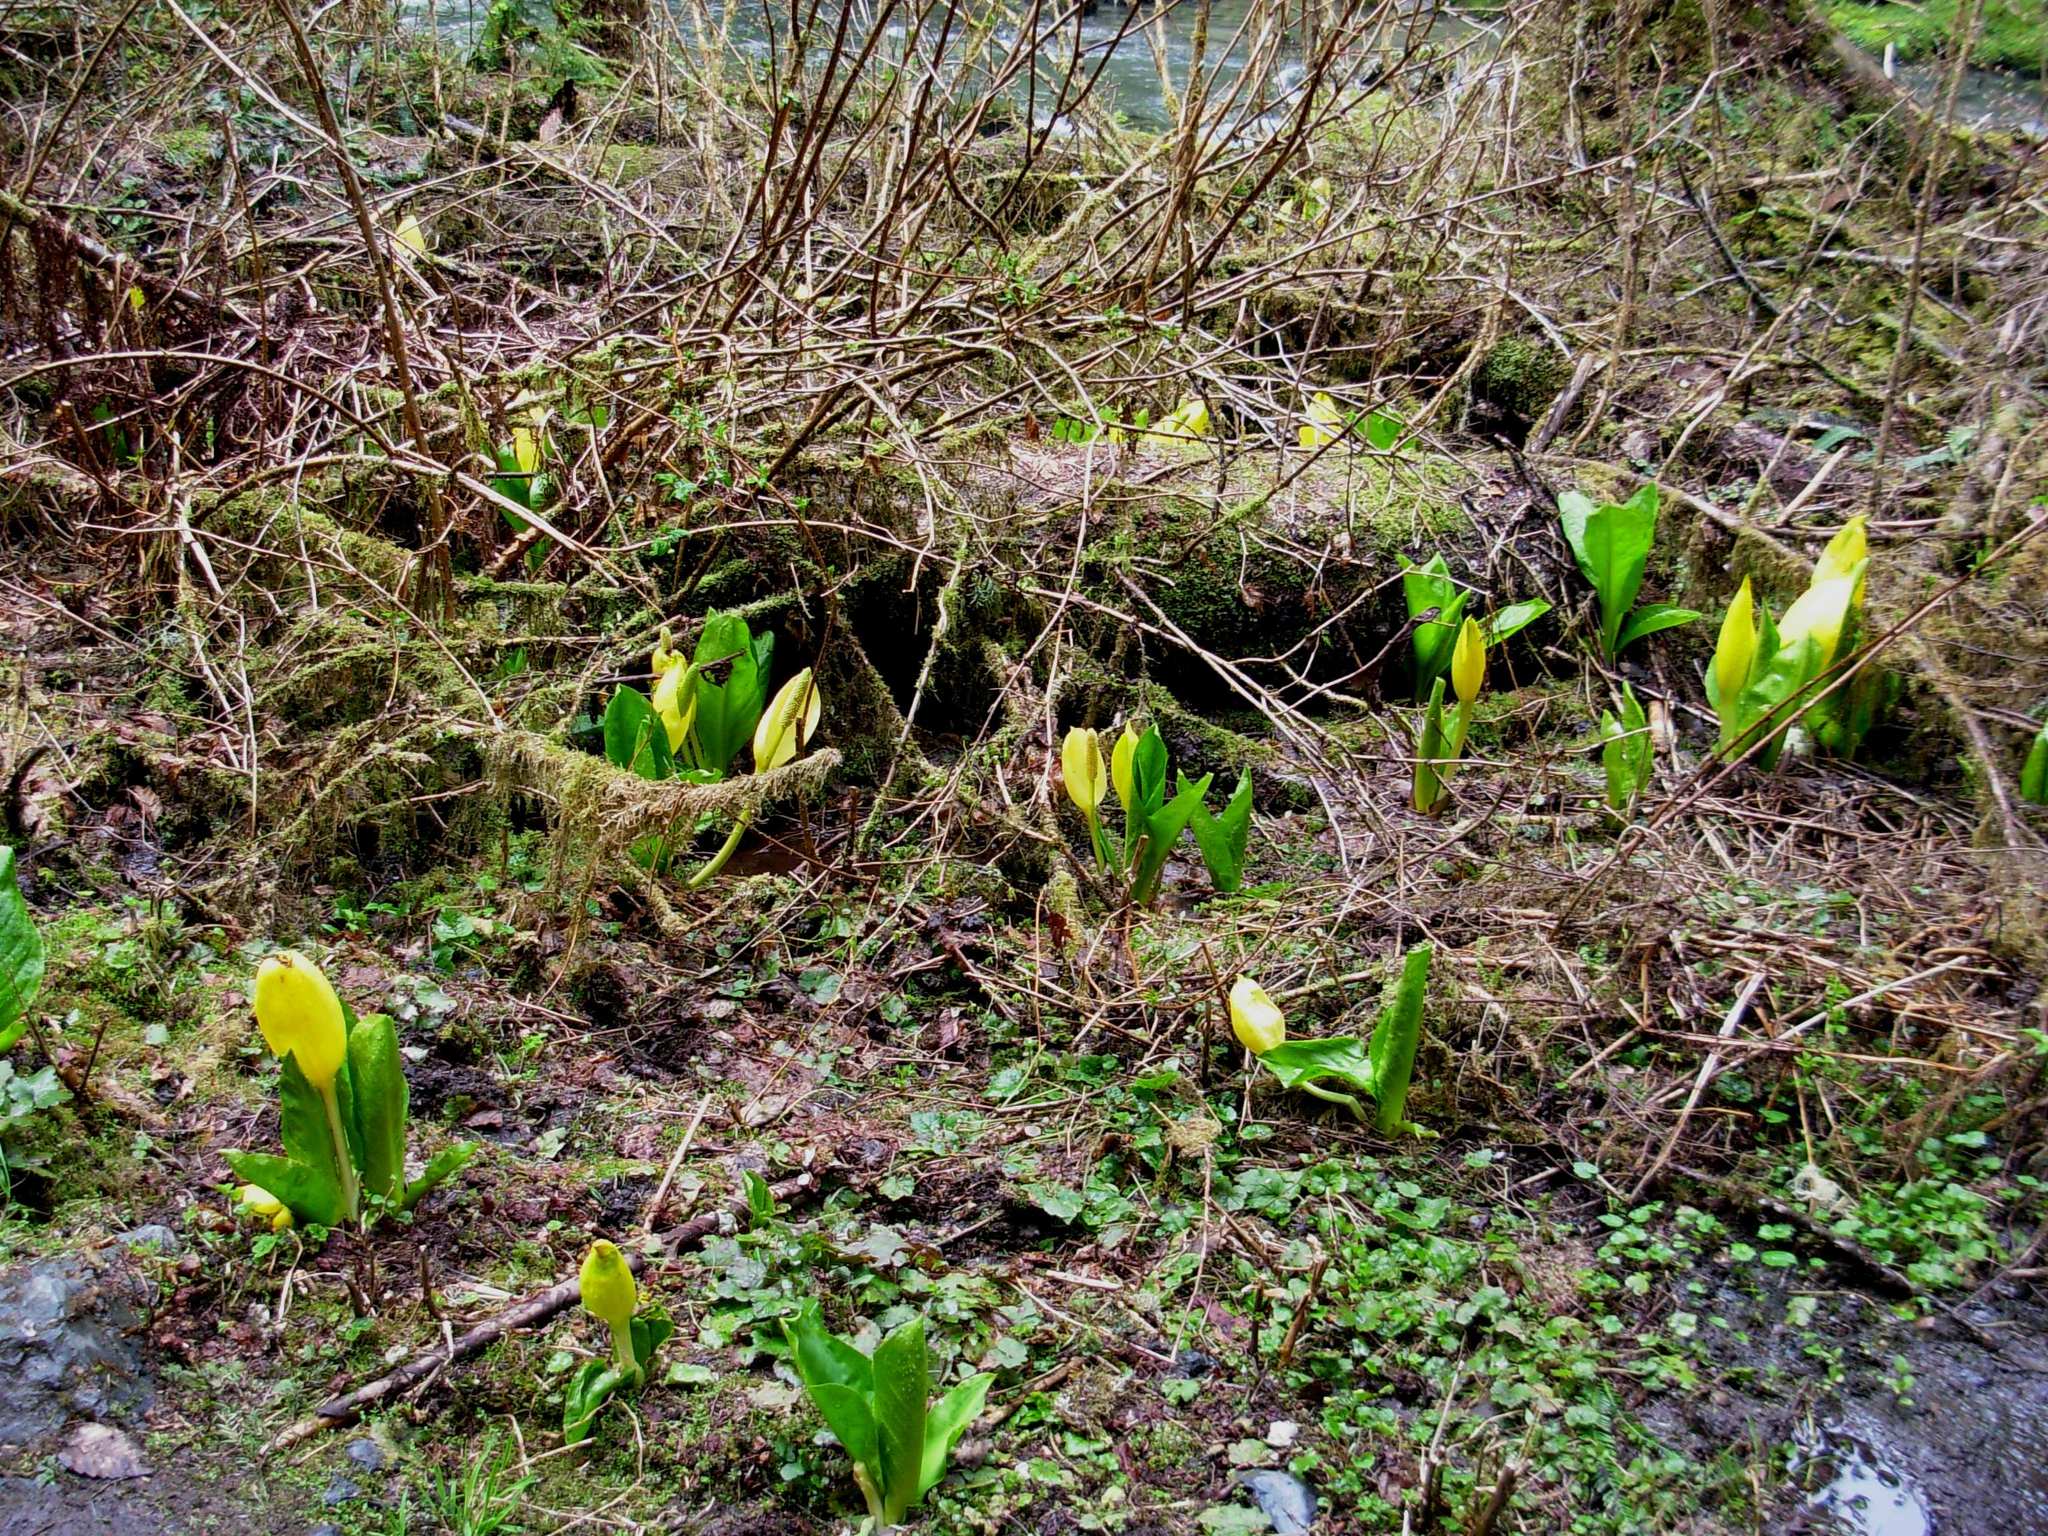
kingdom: Plantae
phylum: Tracheophyta
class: Liliopsida
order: Alismatales
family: Araceae
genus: Lysichiton
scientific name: Lysichiton americanus
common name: American skunk cabbage
